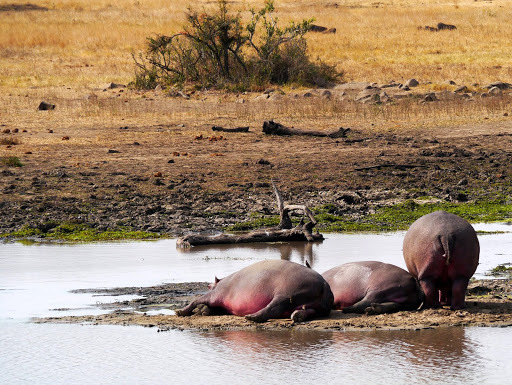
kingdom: Animalia
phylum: Chordata
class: Mammalia
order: Artiodactyla
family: Hippopotamidae
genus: Hippopotamus
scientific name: Hippopotamus amphibius
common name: Common hippopotamus
